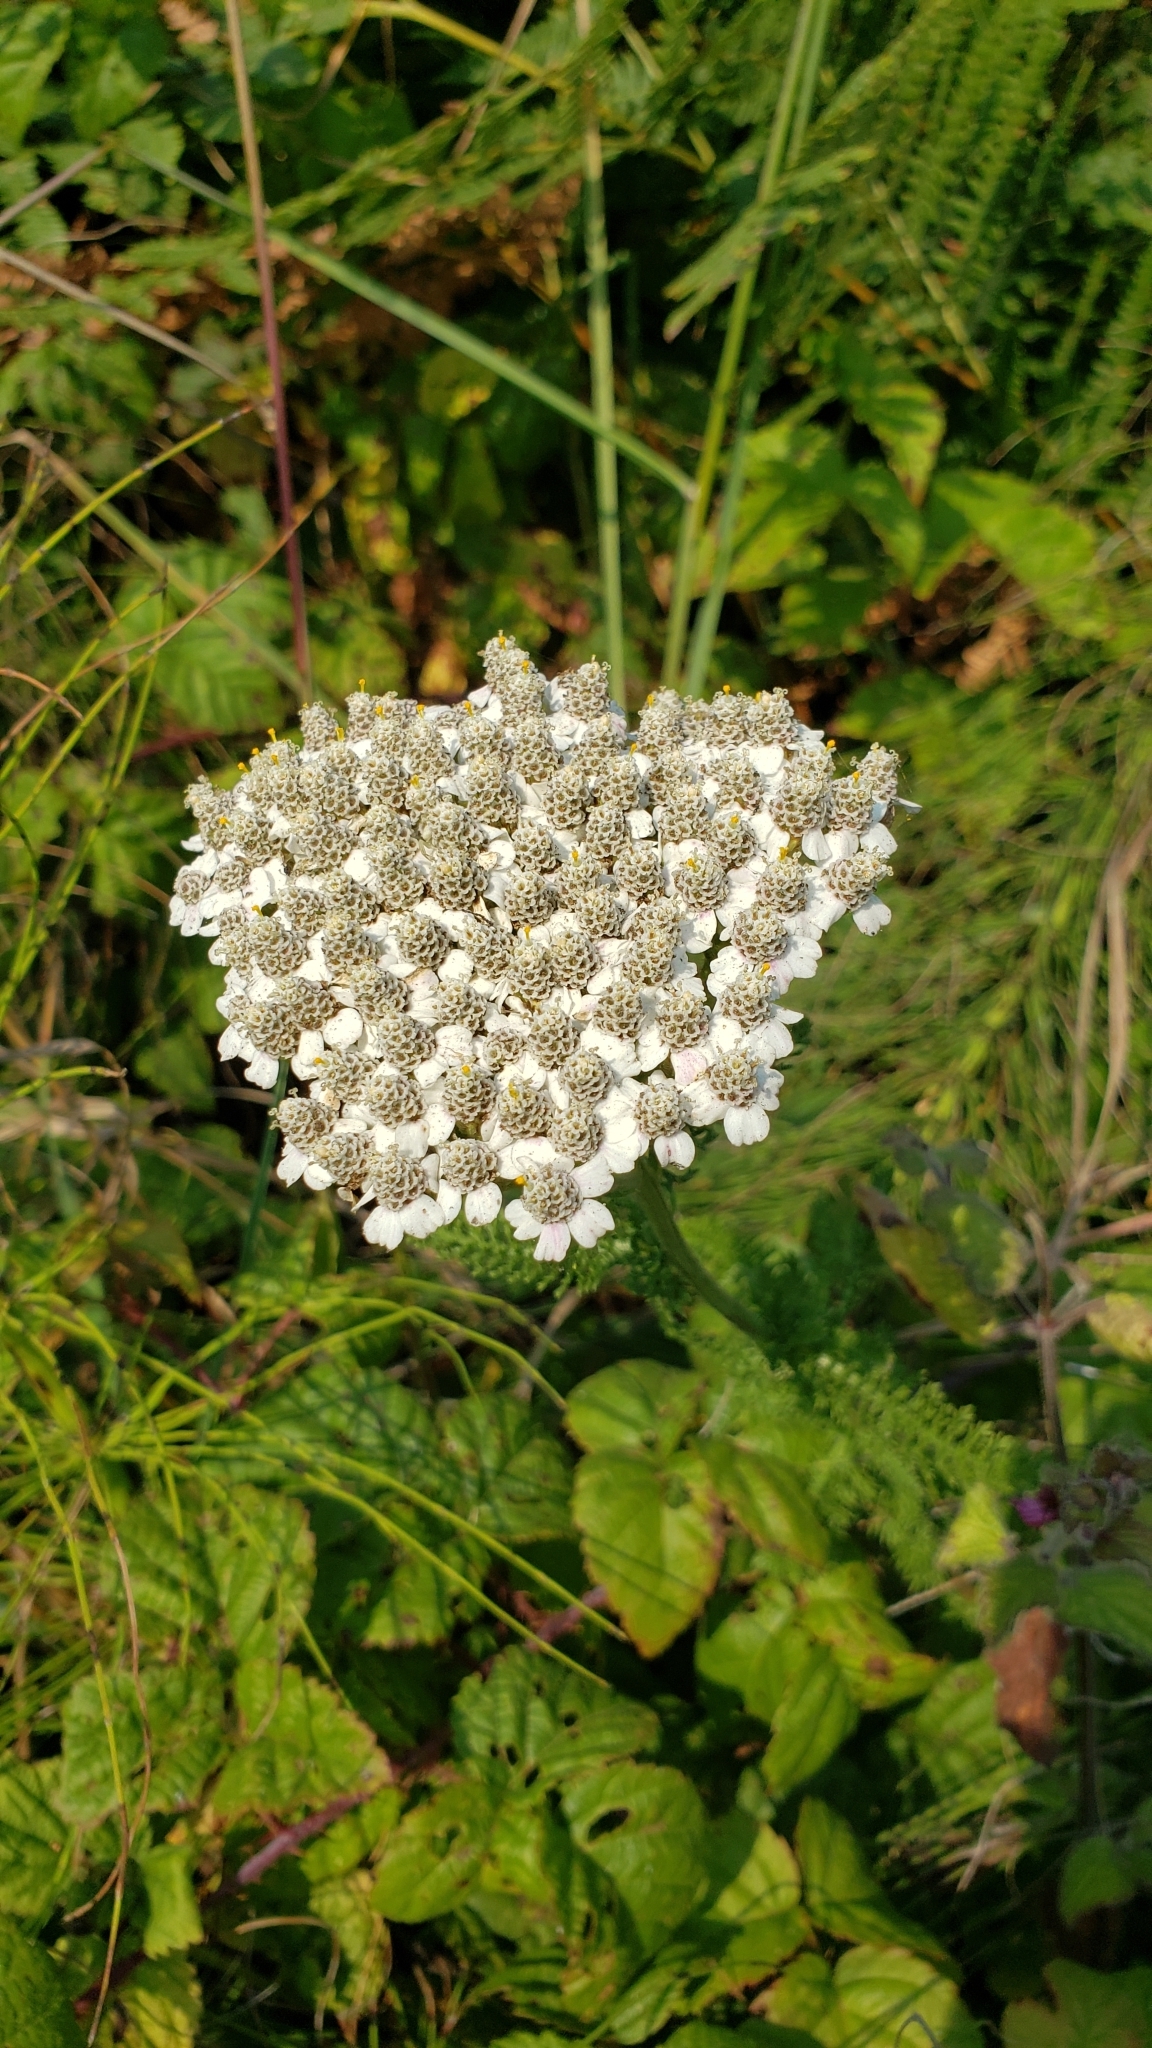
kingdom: Plantae
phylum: Tracheophyta
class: Magnoliopsida
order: Asterales
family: Asteraceae
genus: Achillea
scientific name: Achillea millefolium
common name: Yarrow
